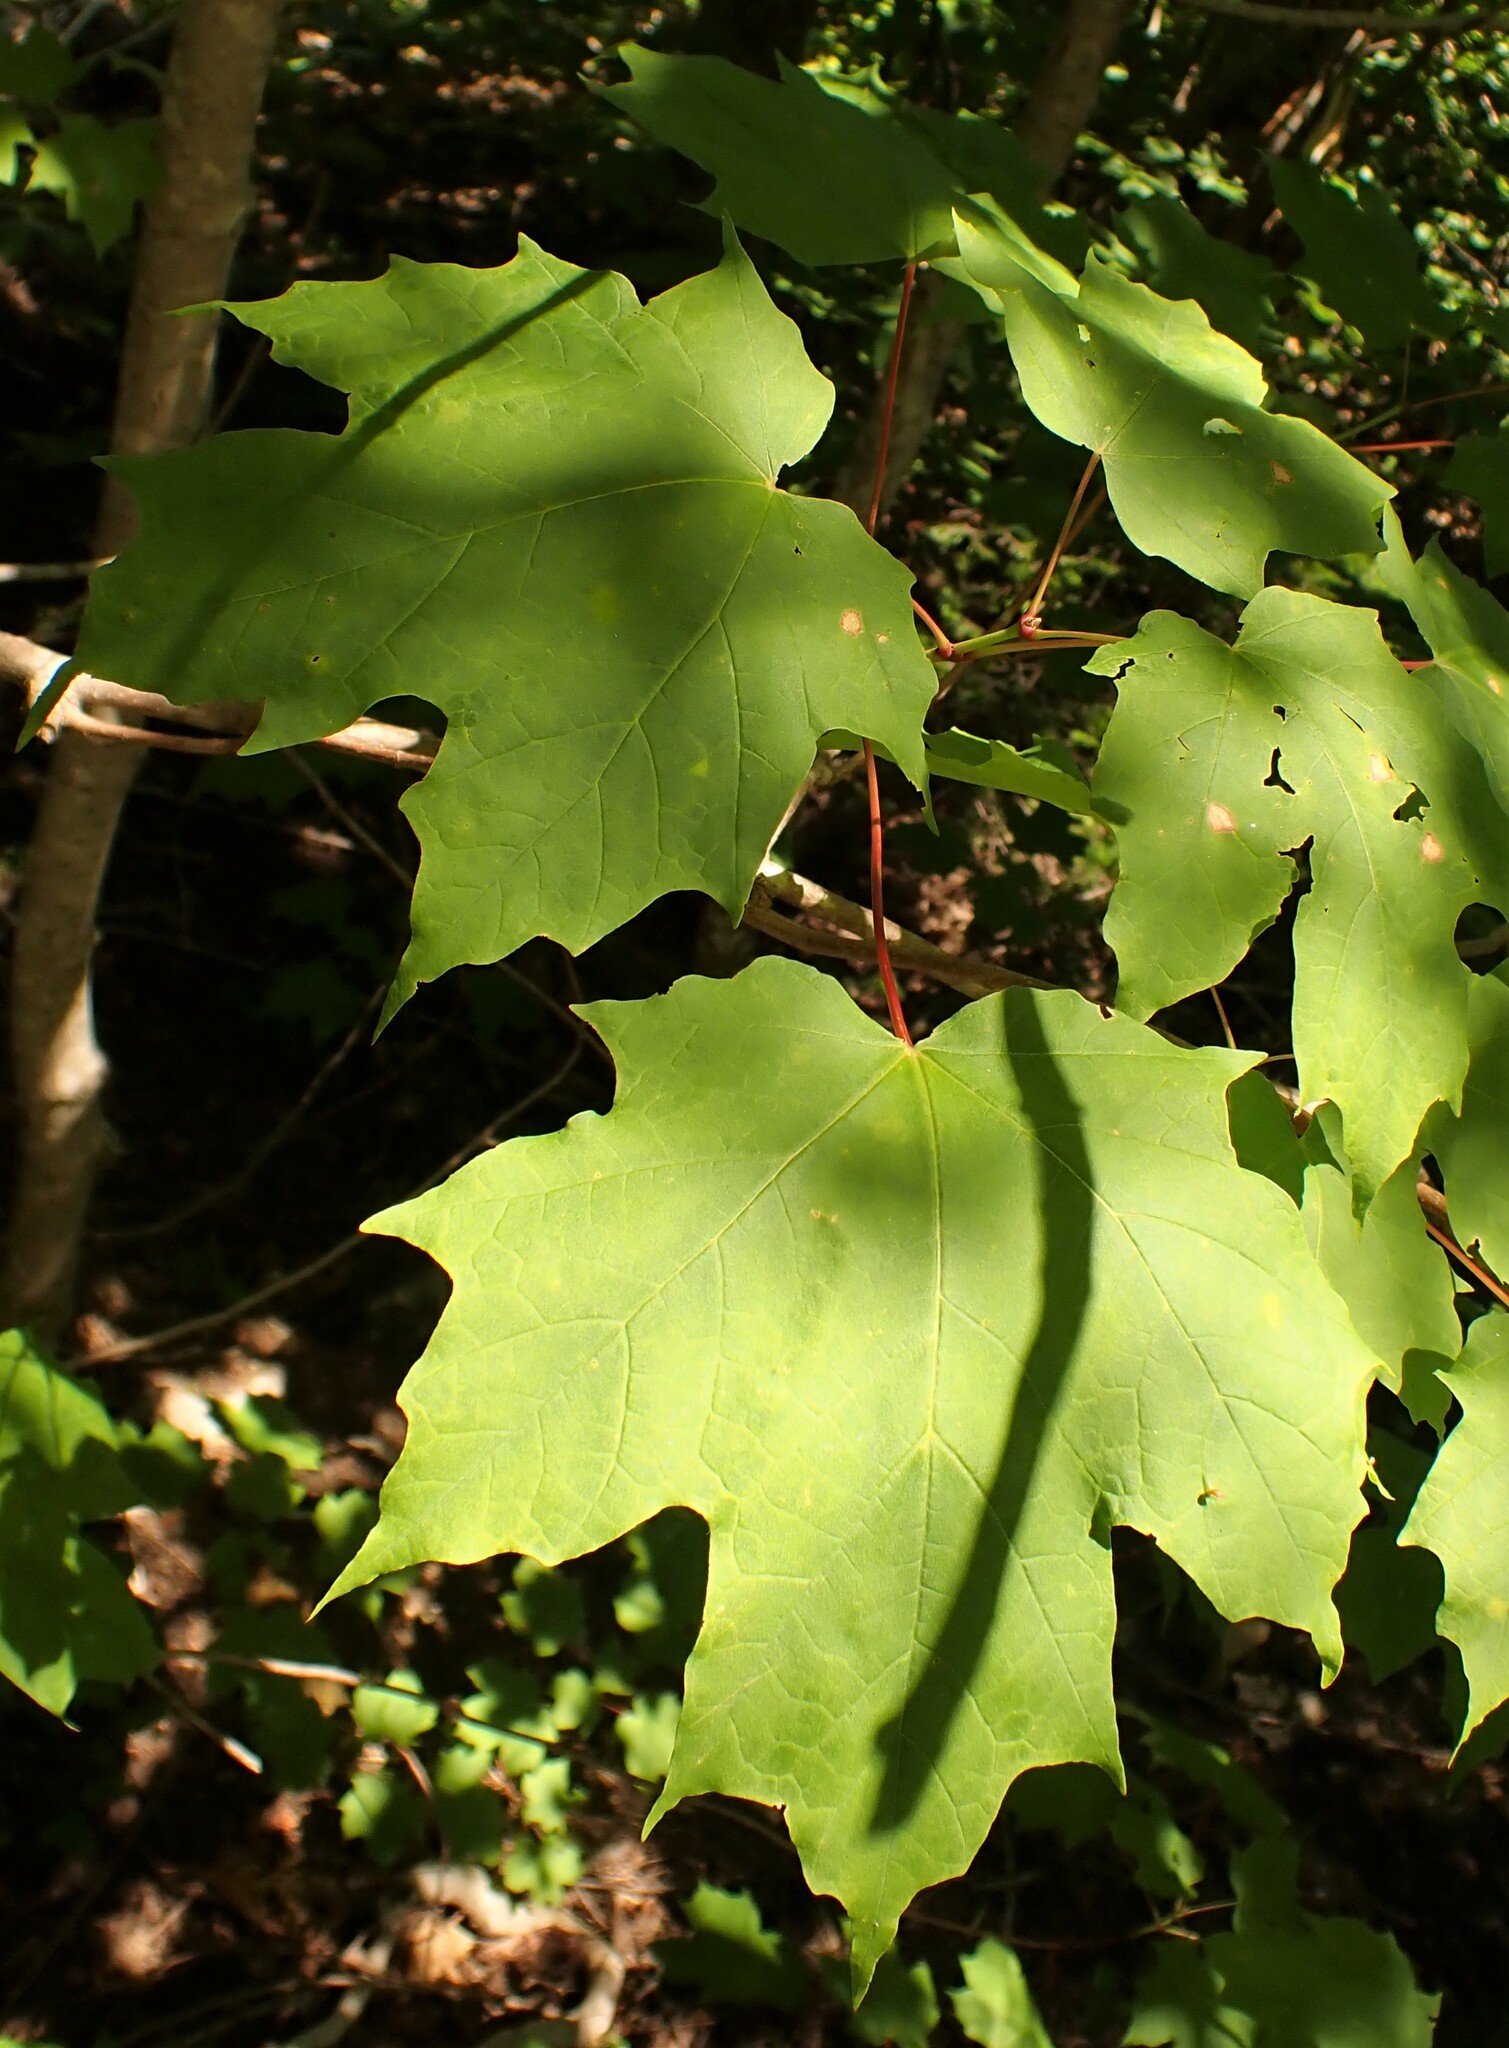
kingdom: Plantae
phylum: Tracheophyta
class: Magnoliopsida
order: Sapindales
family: Sapindaceae
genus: Acer
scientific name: Acer saccharum
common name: Sugar maple
